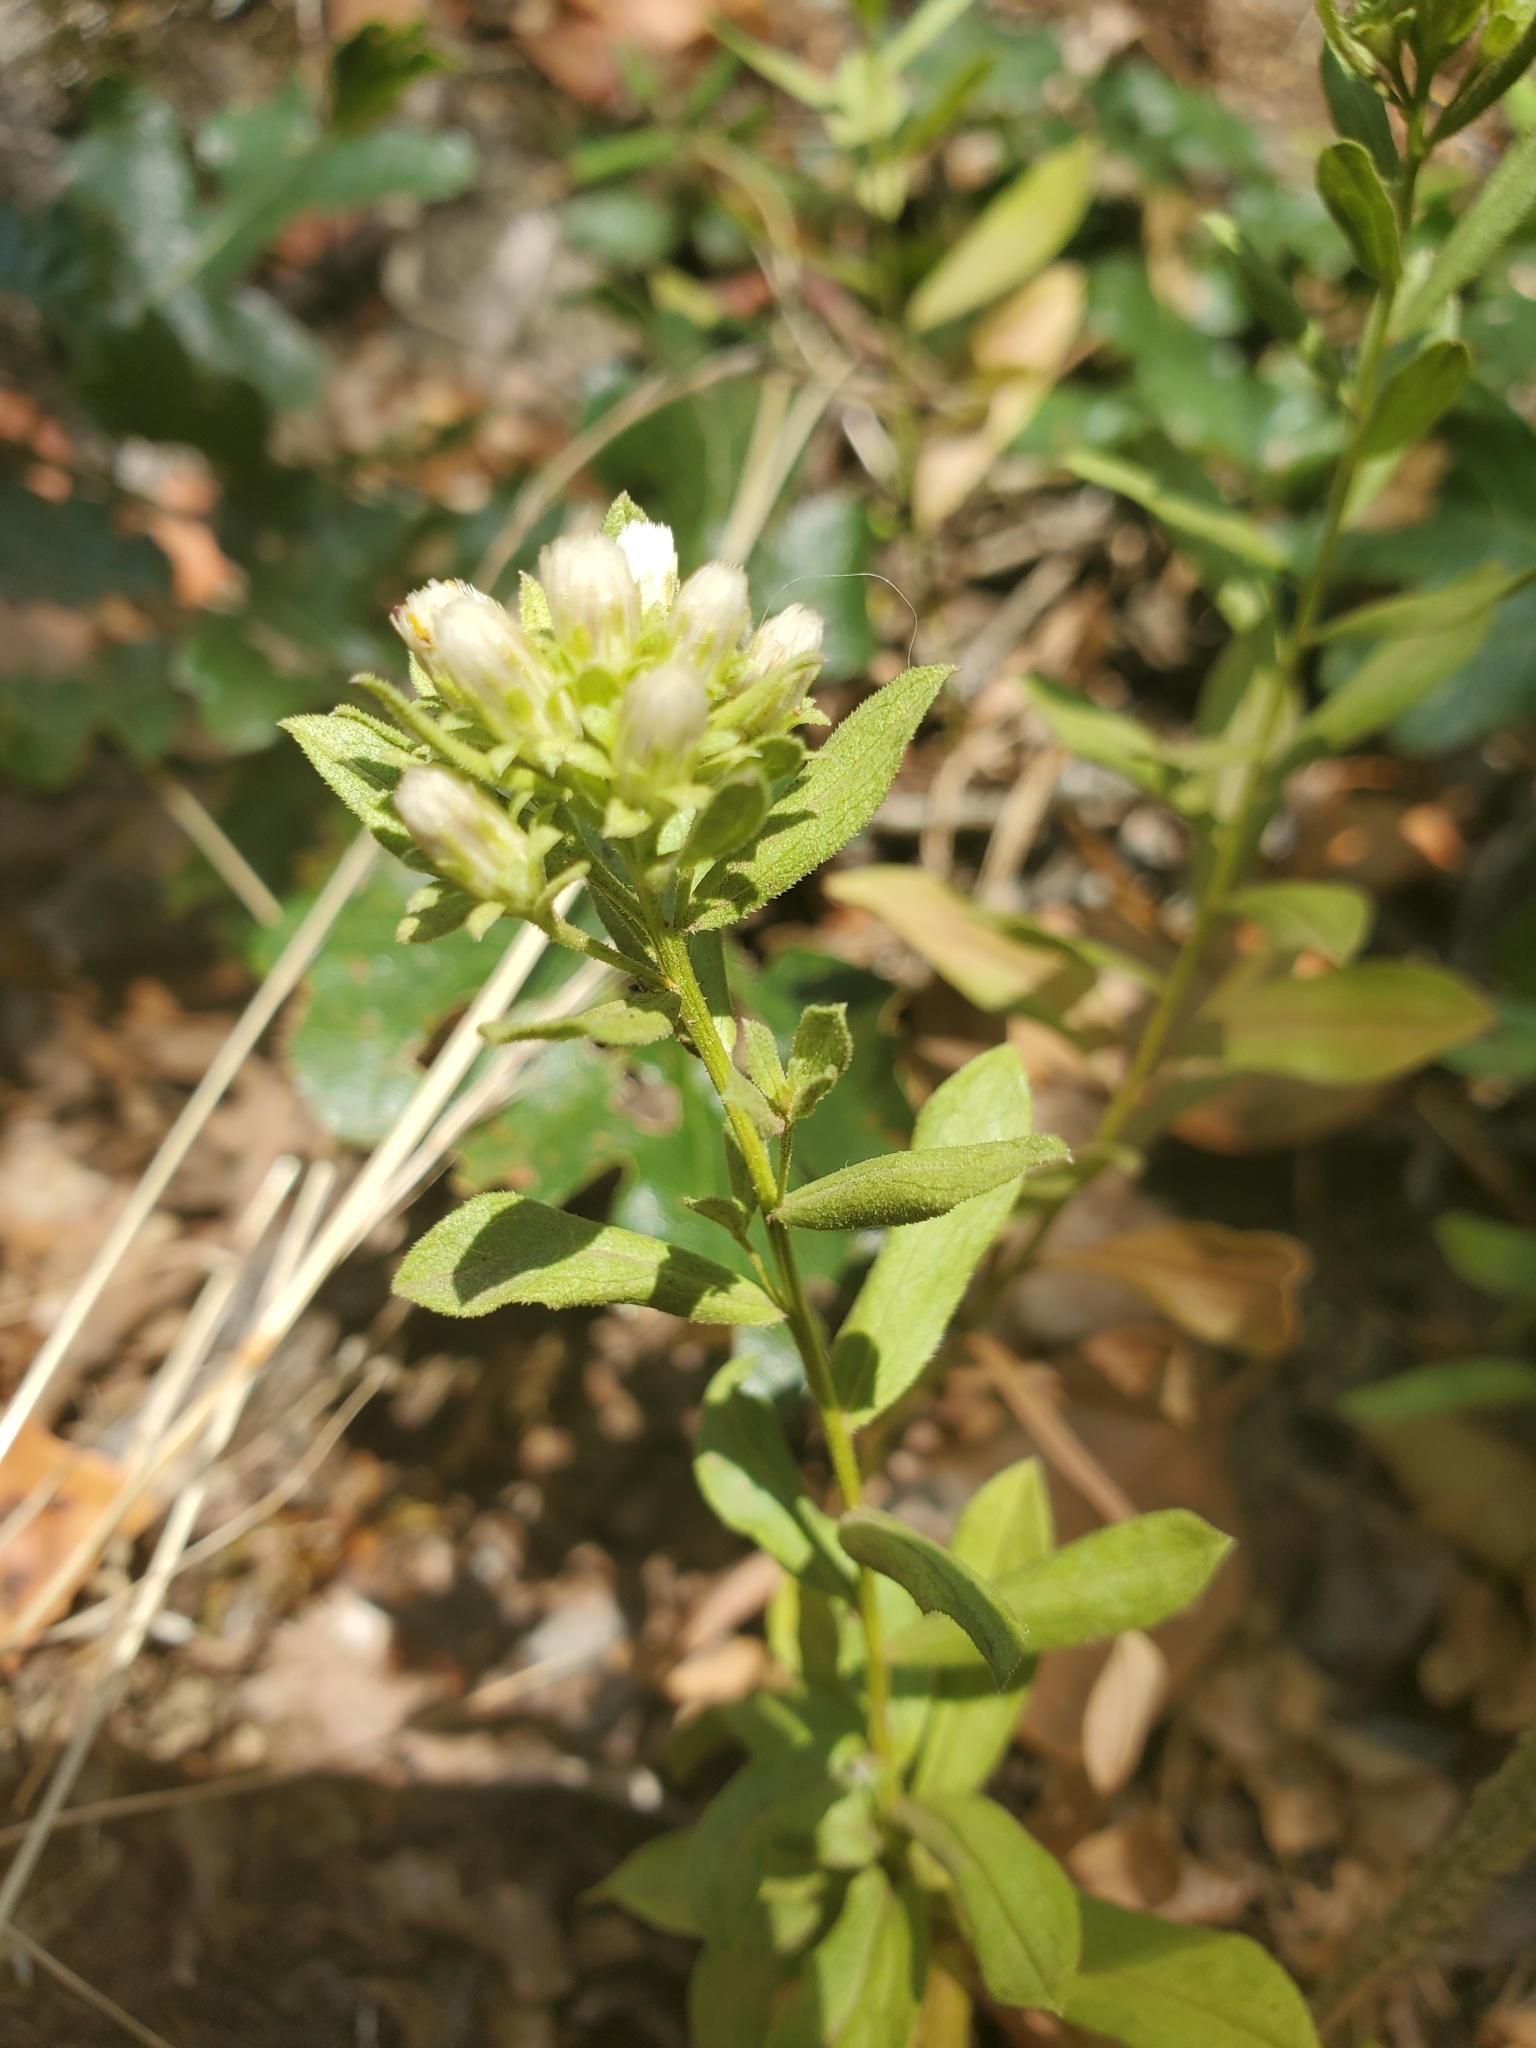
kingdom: Plantae
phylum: Tracheophyta
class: Magnoliopsida
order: Asterales
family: Asteraceae
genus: Sericocarpus
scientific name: Sericocarpus rigidus
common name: Columbia white-top aster
